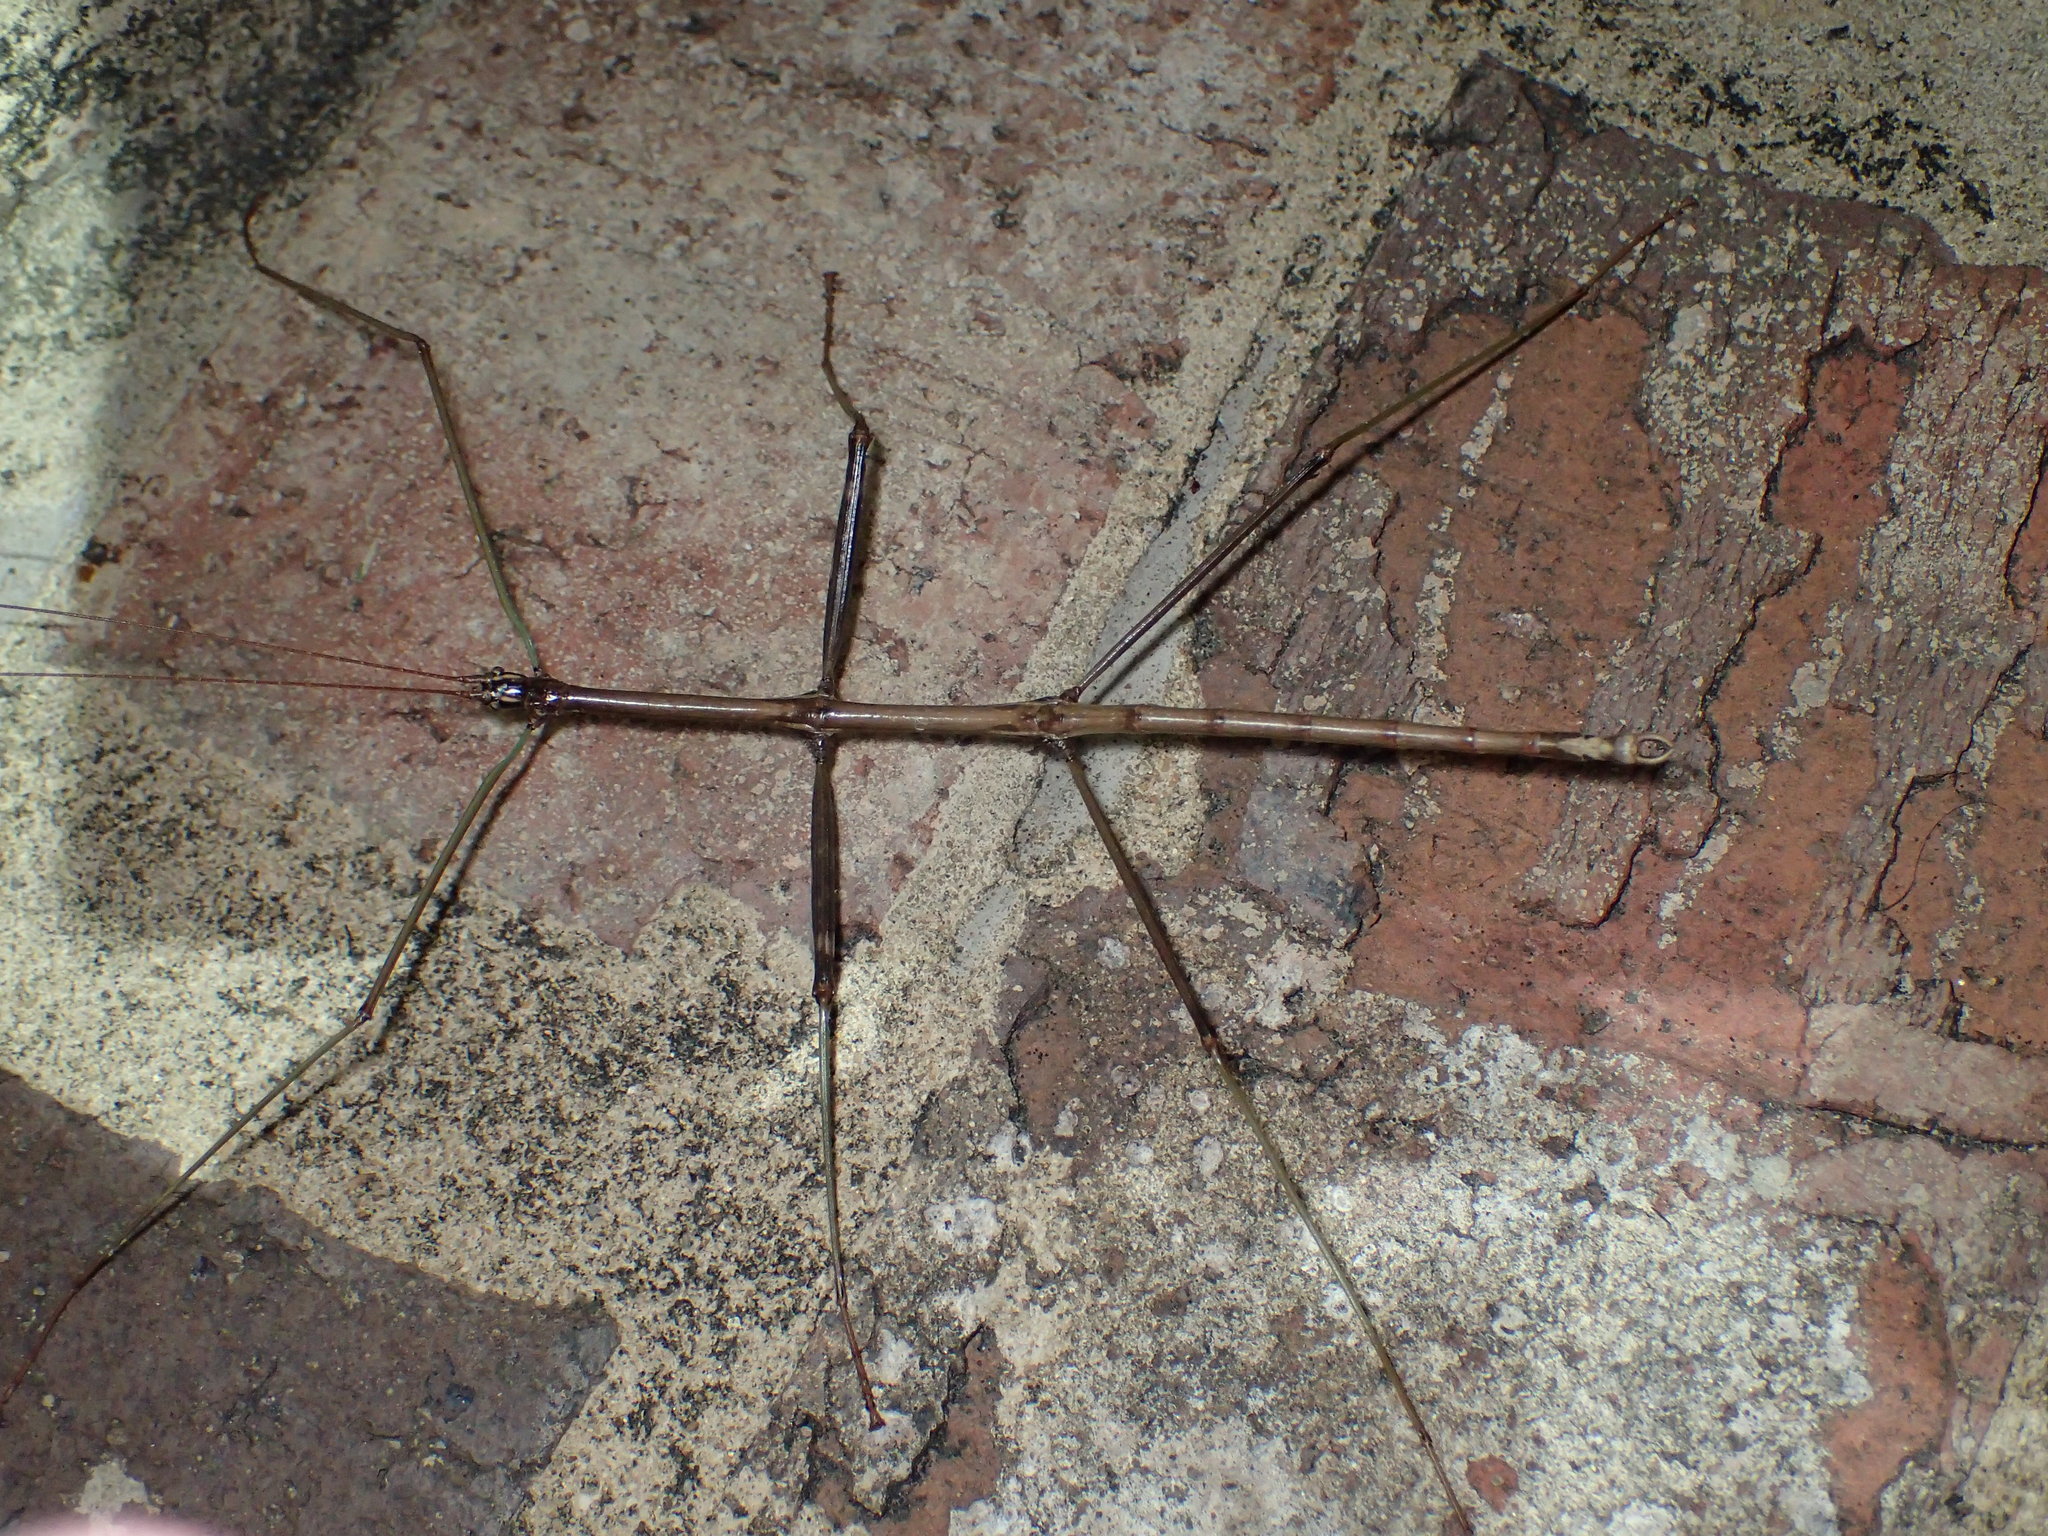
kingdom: Animalia
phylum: Arthropoda
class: Insecta
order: Phasmida
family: Diapheromeridae
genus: Diapheromera
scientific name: Diapheromera femorata
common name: Common american walkingstick
